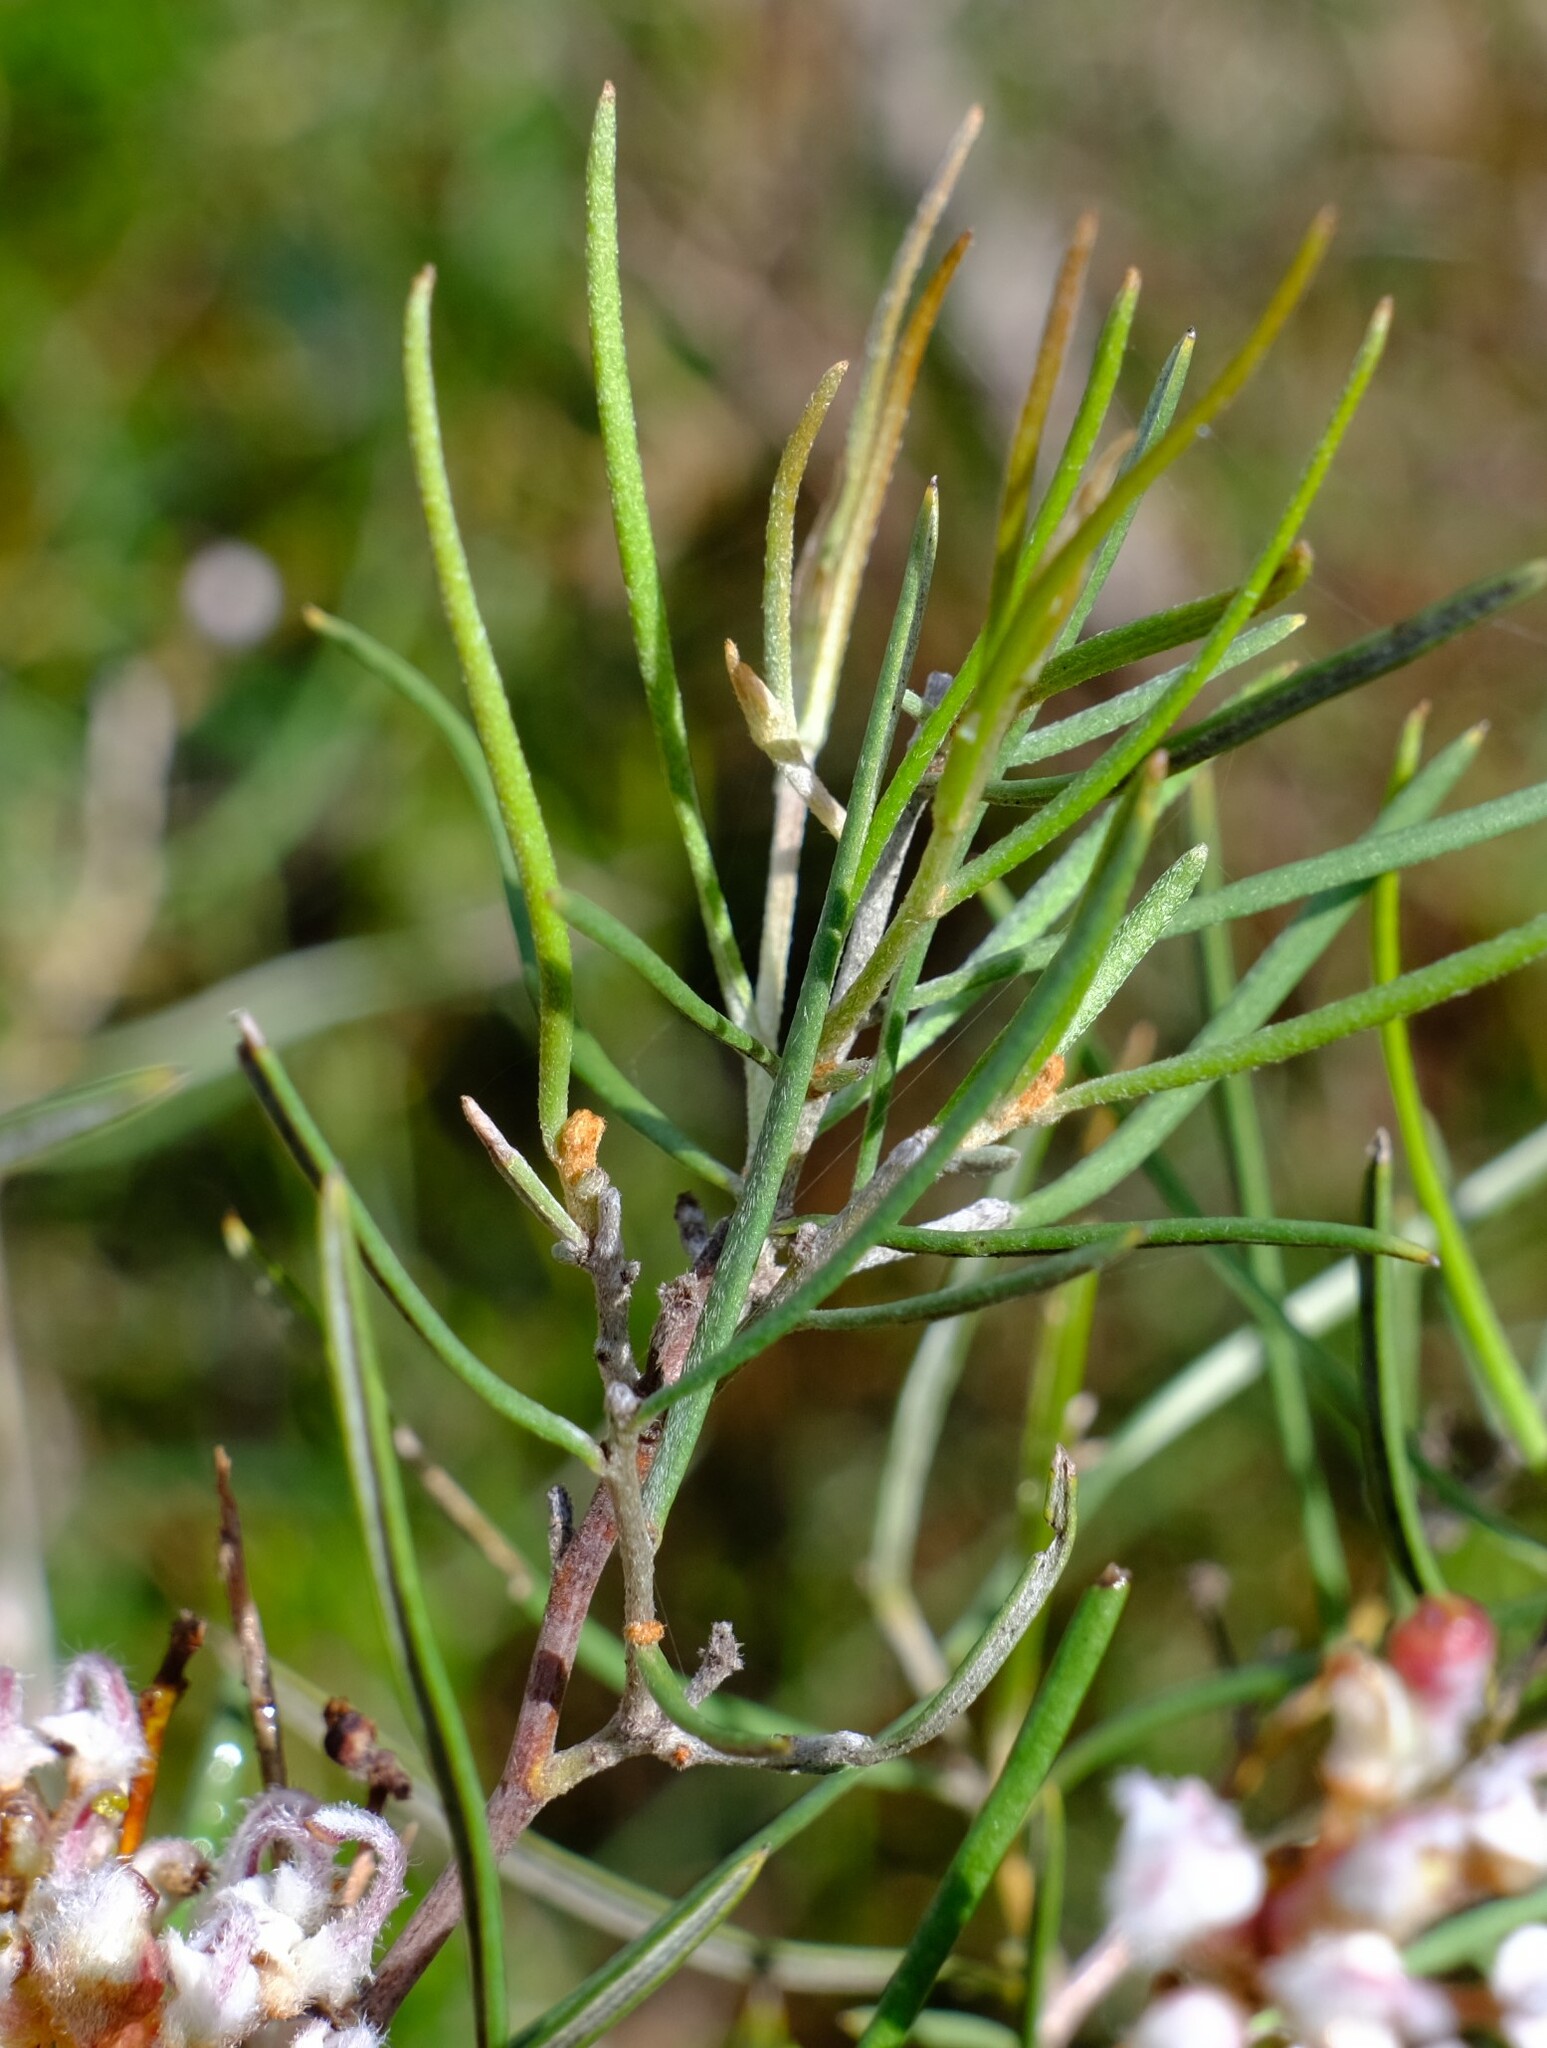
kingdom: Plantae
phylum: Tracheophyta
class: Magnoliopsida
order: Proteales
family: Proteaceae
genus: Grevillea
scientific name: Grevillea umbellulata
